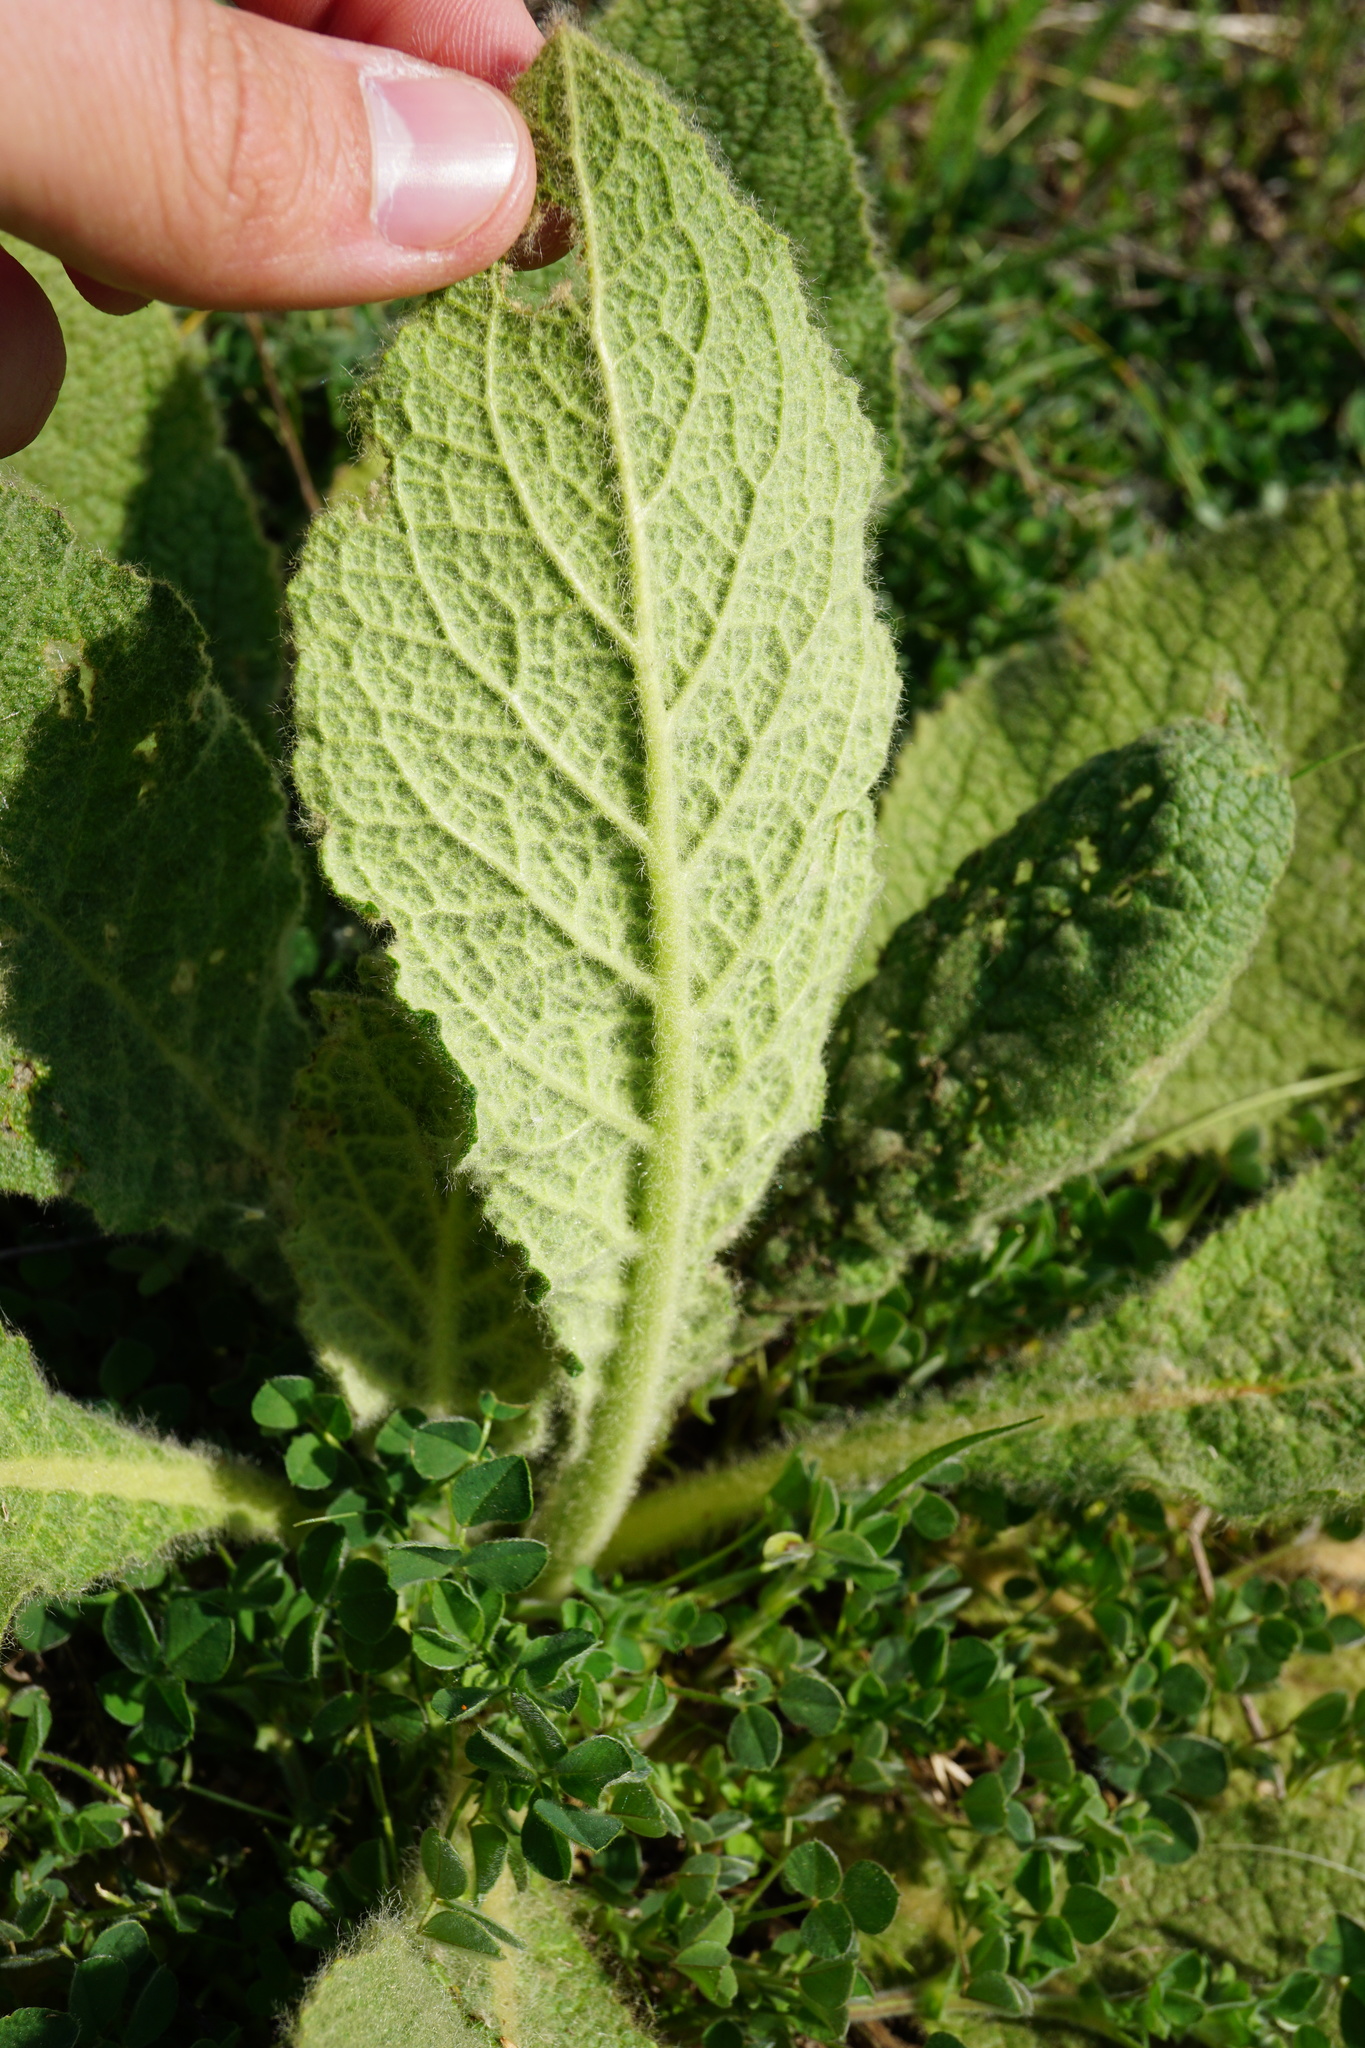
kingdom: Plantae
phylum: Tracheophyta
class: Magnoliopsida
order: Lamiales
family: Scrophulariaceae
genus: Verbascum
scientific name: Verbascum
